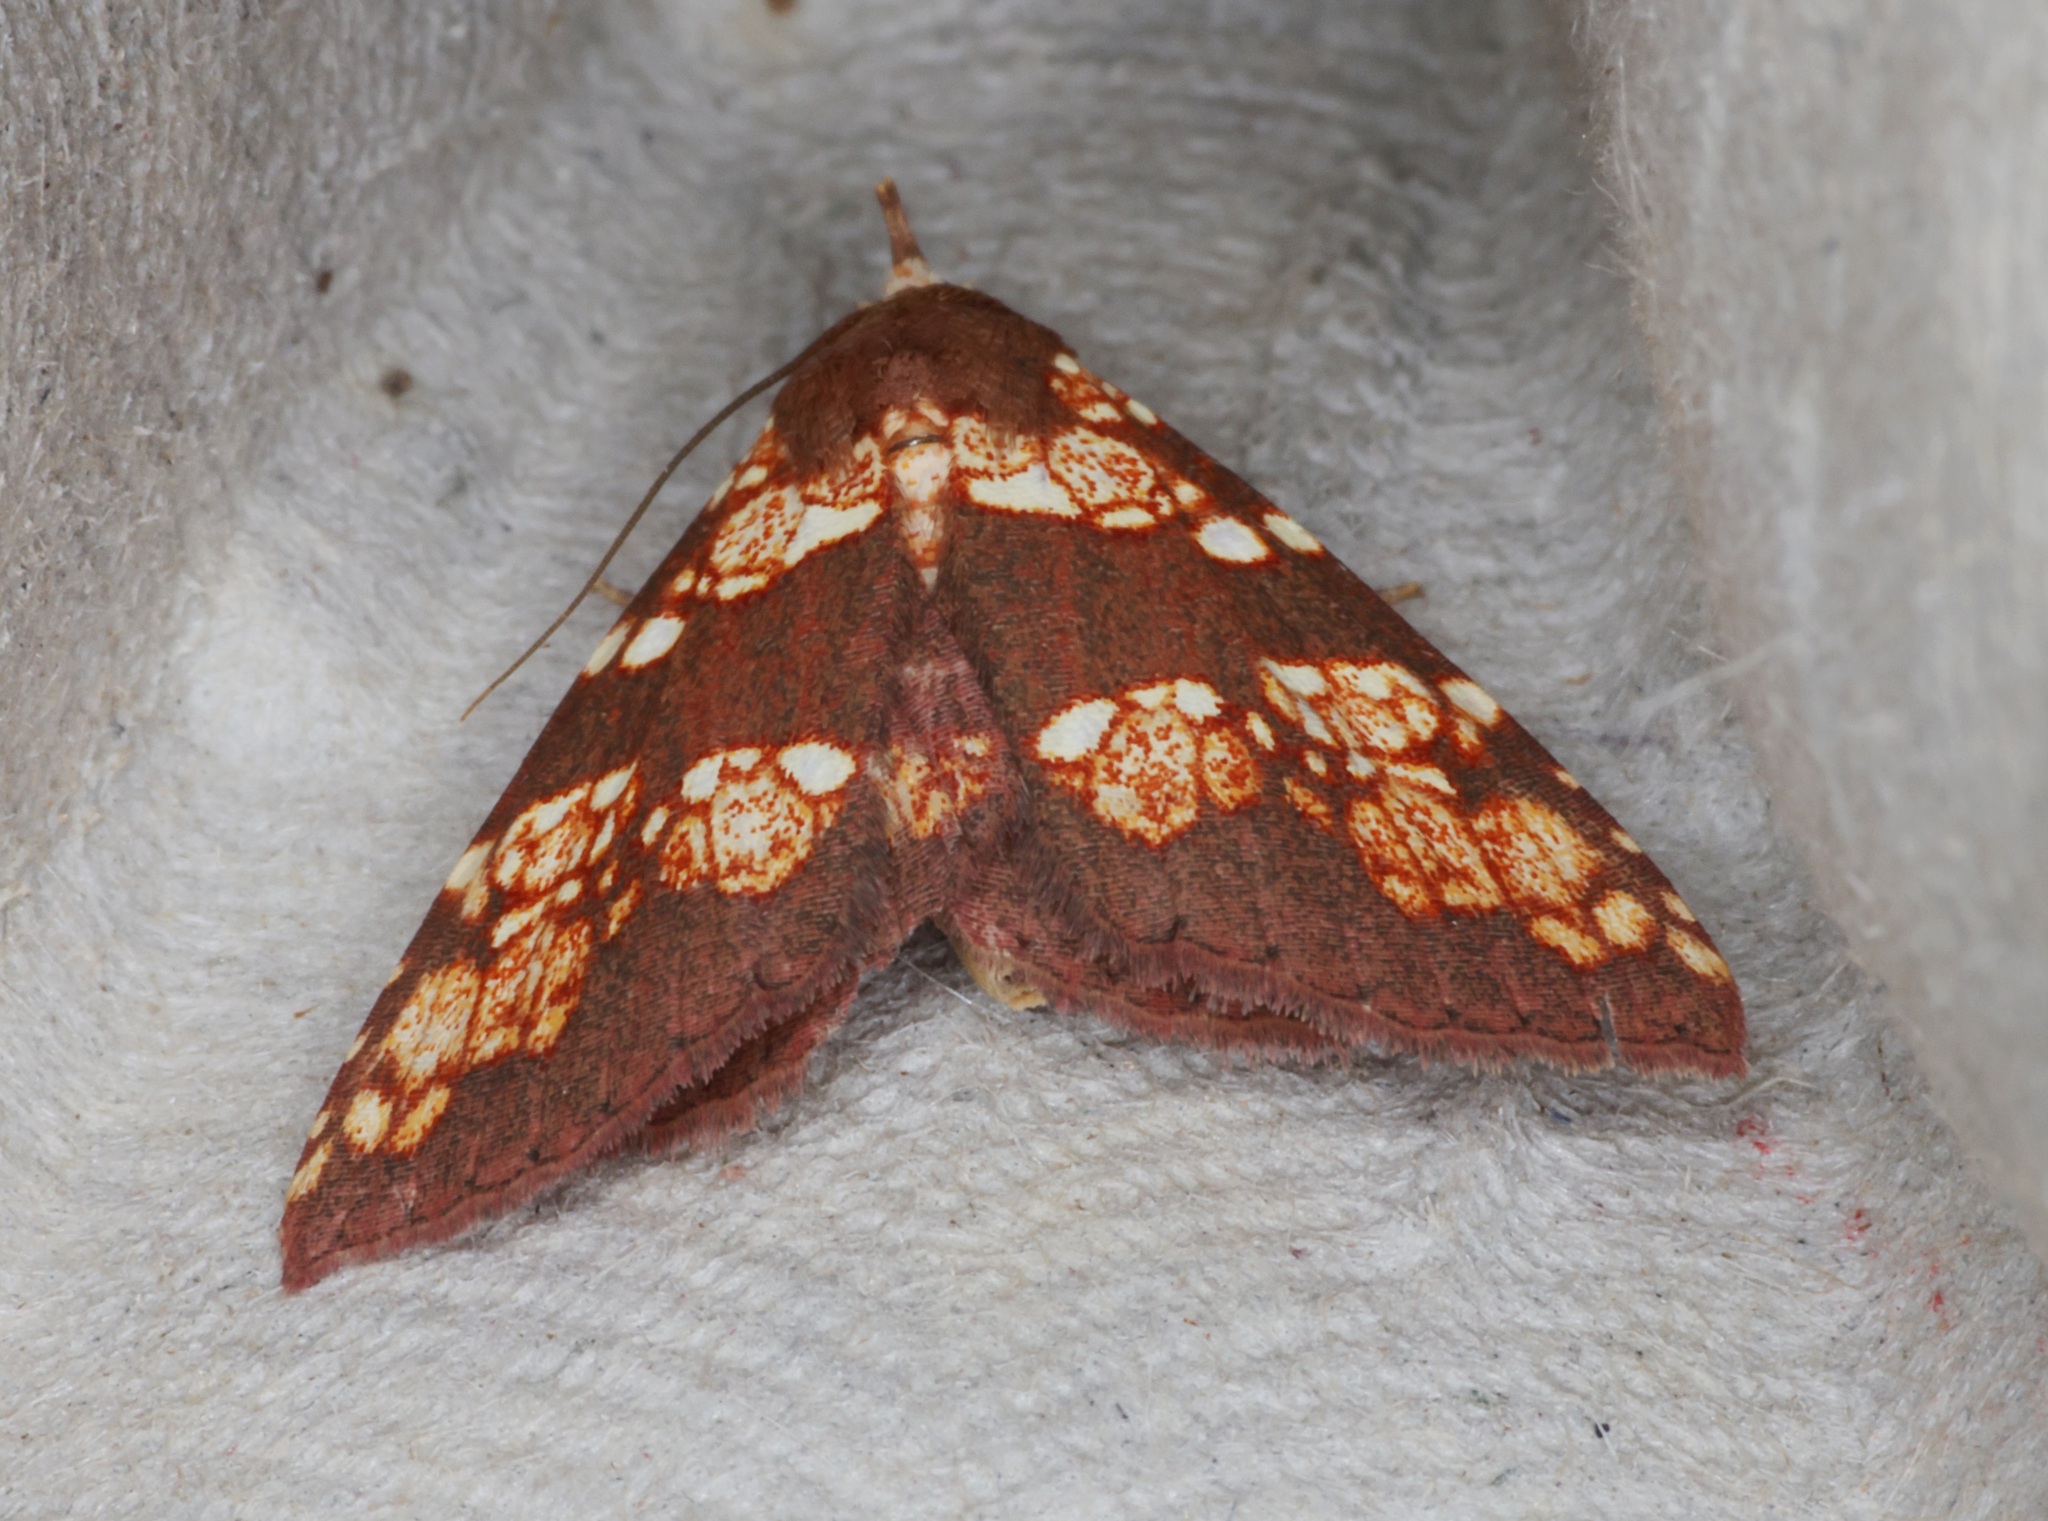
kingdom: Animalia
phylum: Arthropoda
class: Insecta
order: Lepidoptera
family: Erebidae
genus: Saroba
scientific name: Saroba pustulifera
